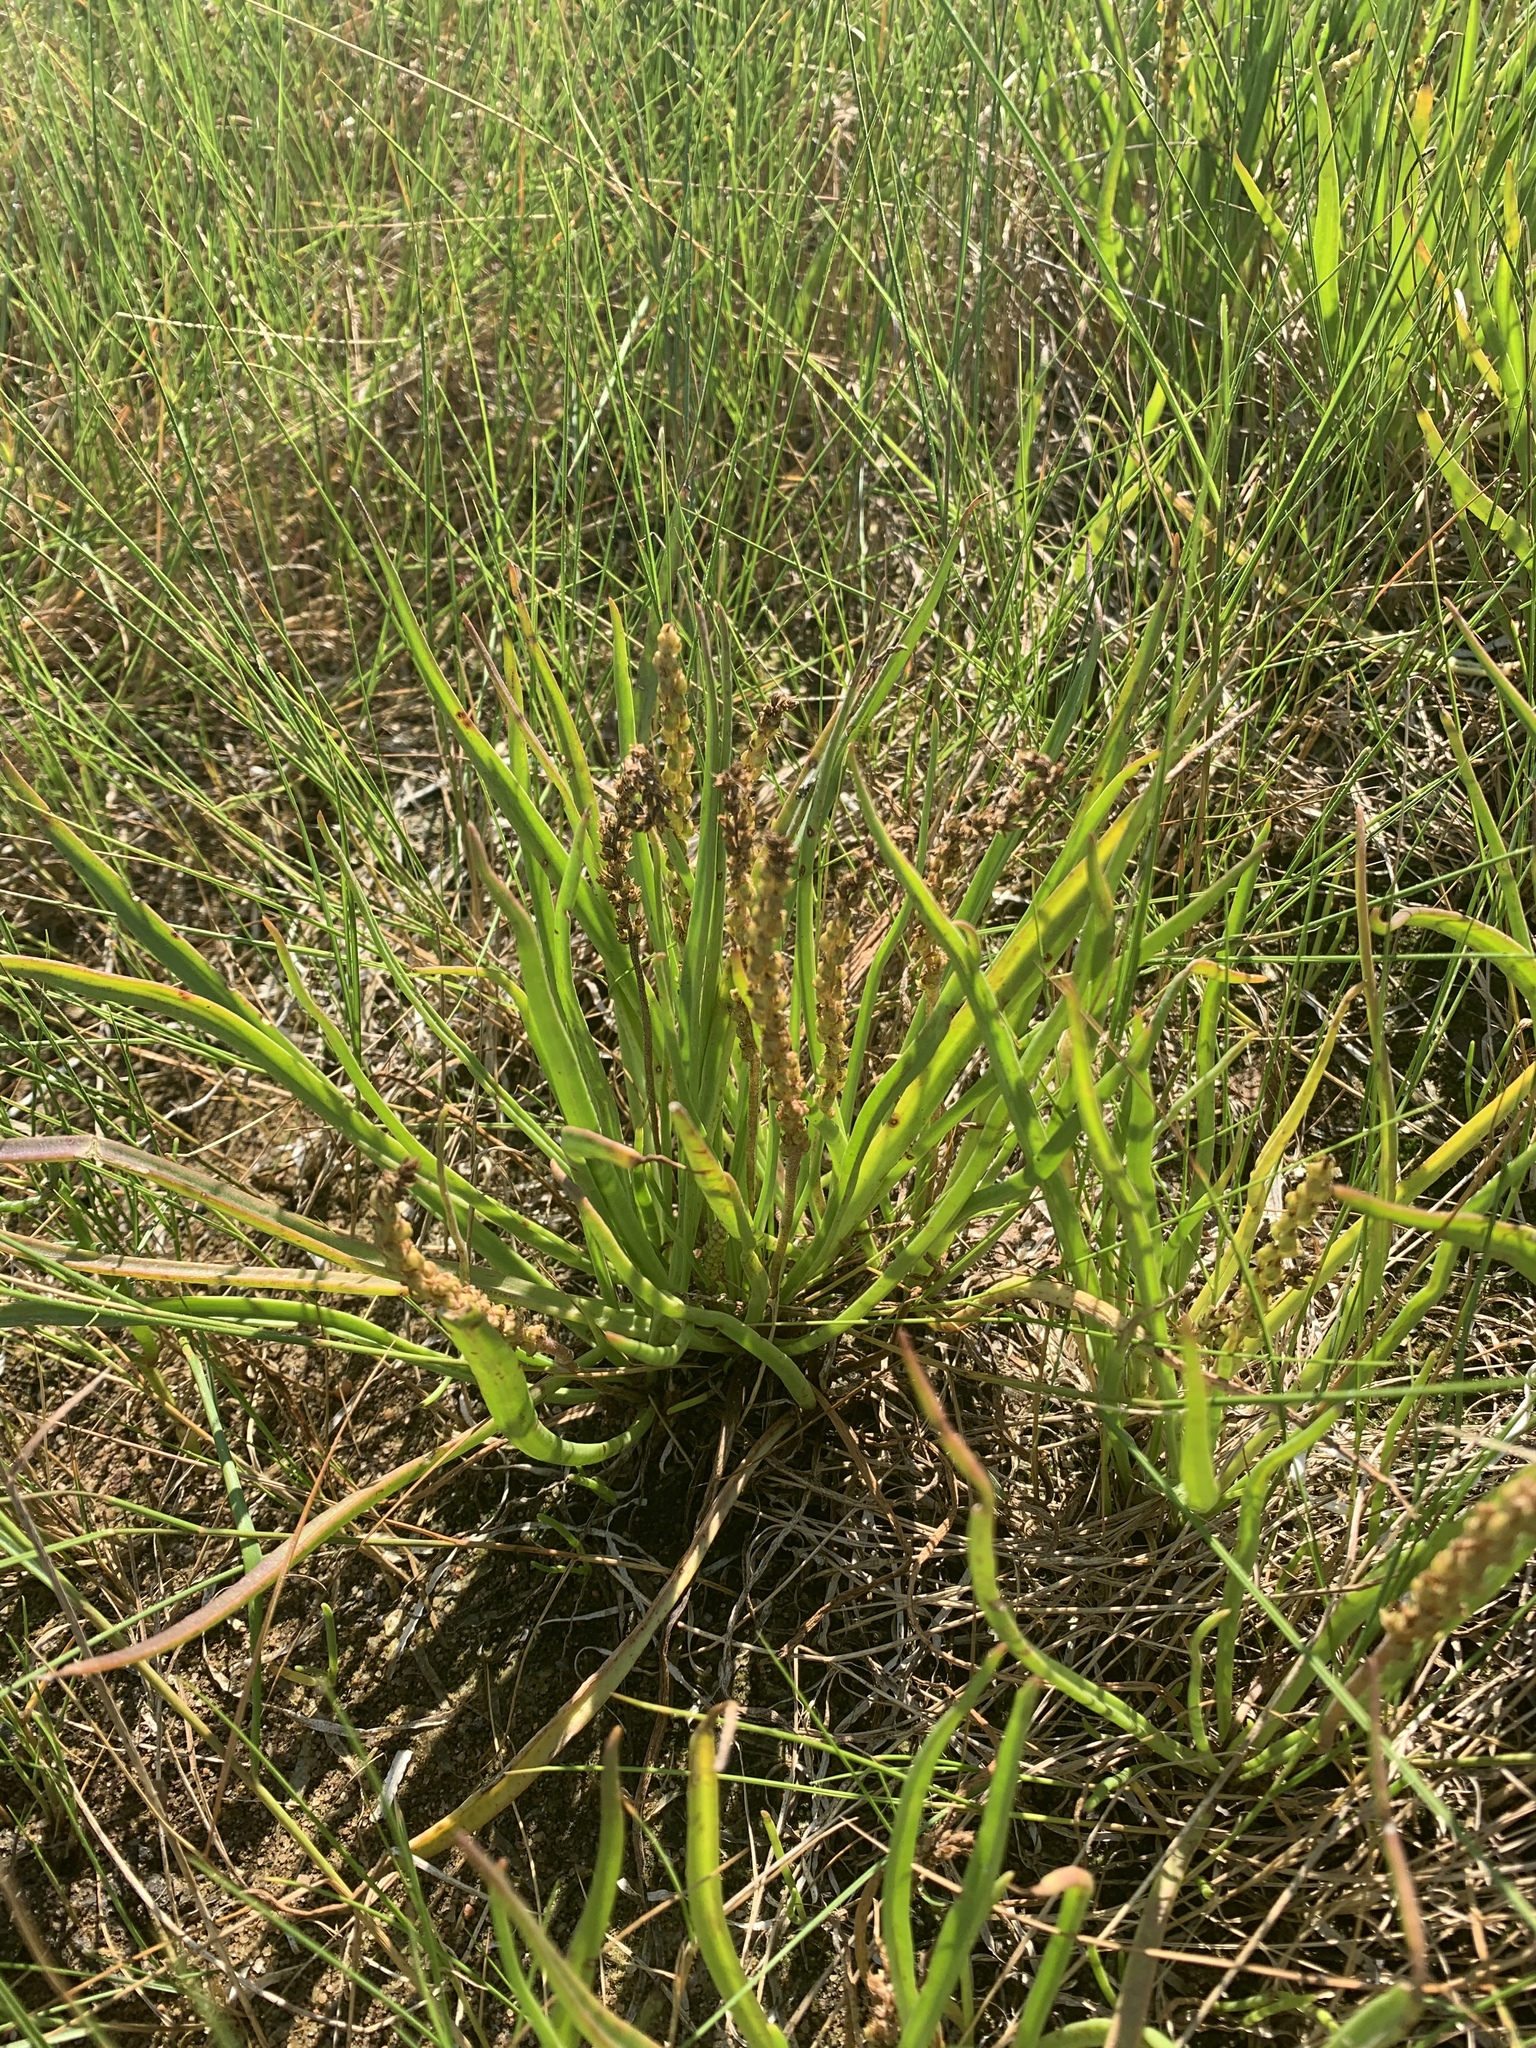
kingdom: Plantae
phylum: Tracheophyta
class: Magnoliopsida
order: Lamiales
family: Plantaginaceae
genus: Plantago
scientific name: Plantago maritima
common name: Sea plantain
